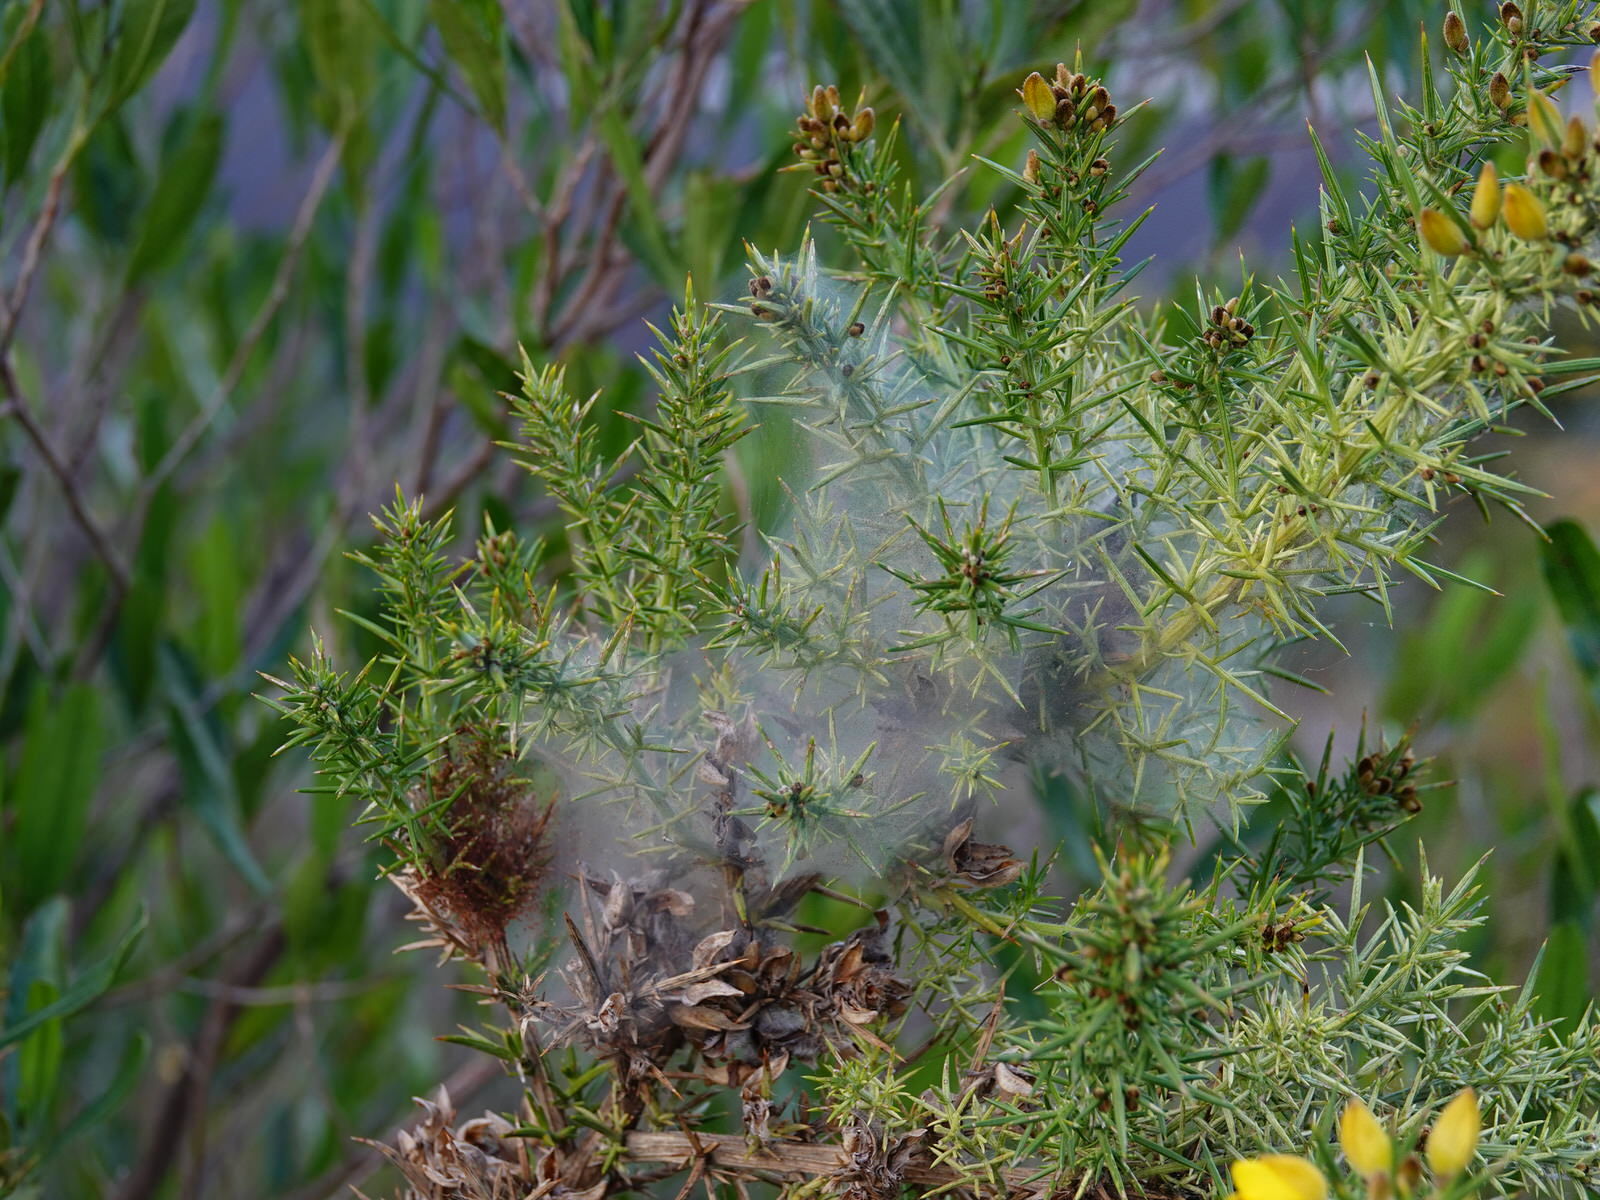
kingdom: Animalia
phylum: Arthropoda
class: Arachnida
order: Trombidiformes
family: Tetranychidae
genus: Tetranychus
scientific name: Tetranychus lintearius
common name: Gorse spider mite
